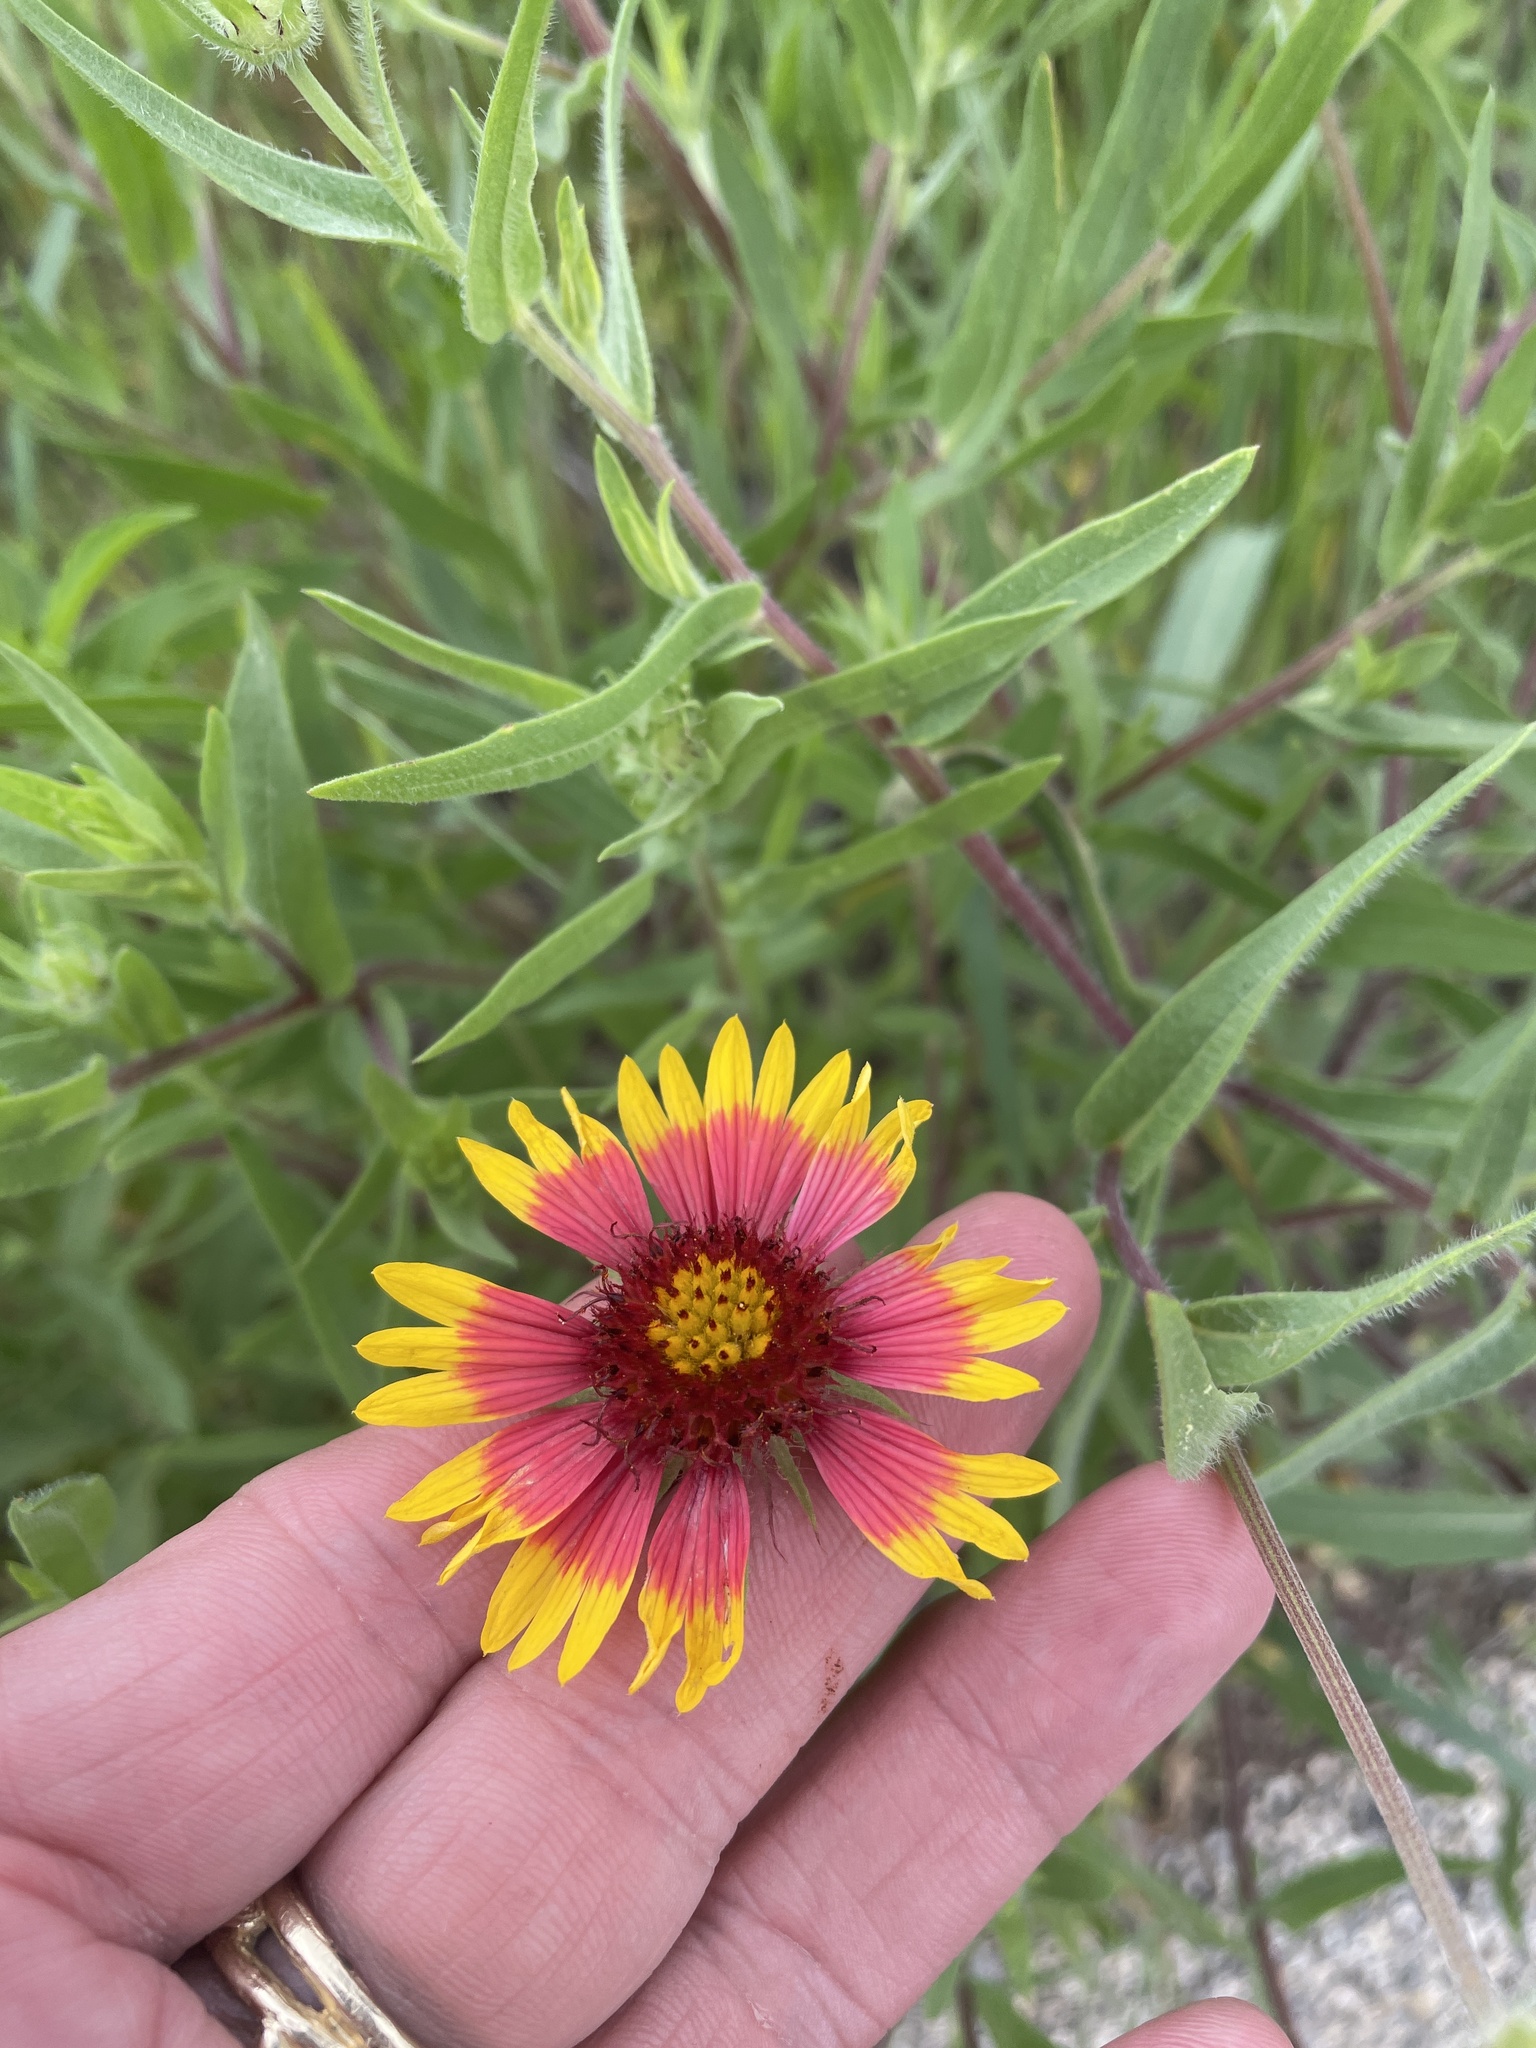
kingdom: Plantae
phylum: Tracheophyta
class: Magnoliopsida
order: Asterales
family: Asteraceae
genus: Gaillardia
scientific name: Gaillardia pulchella
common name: Firewheel
